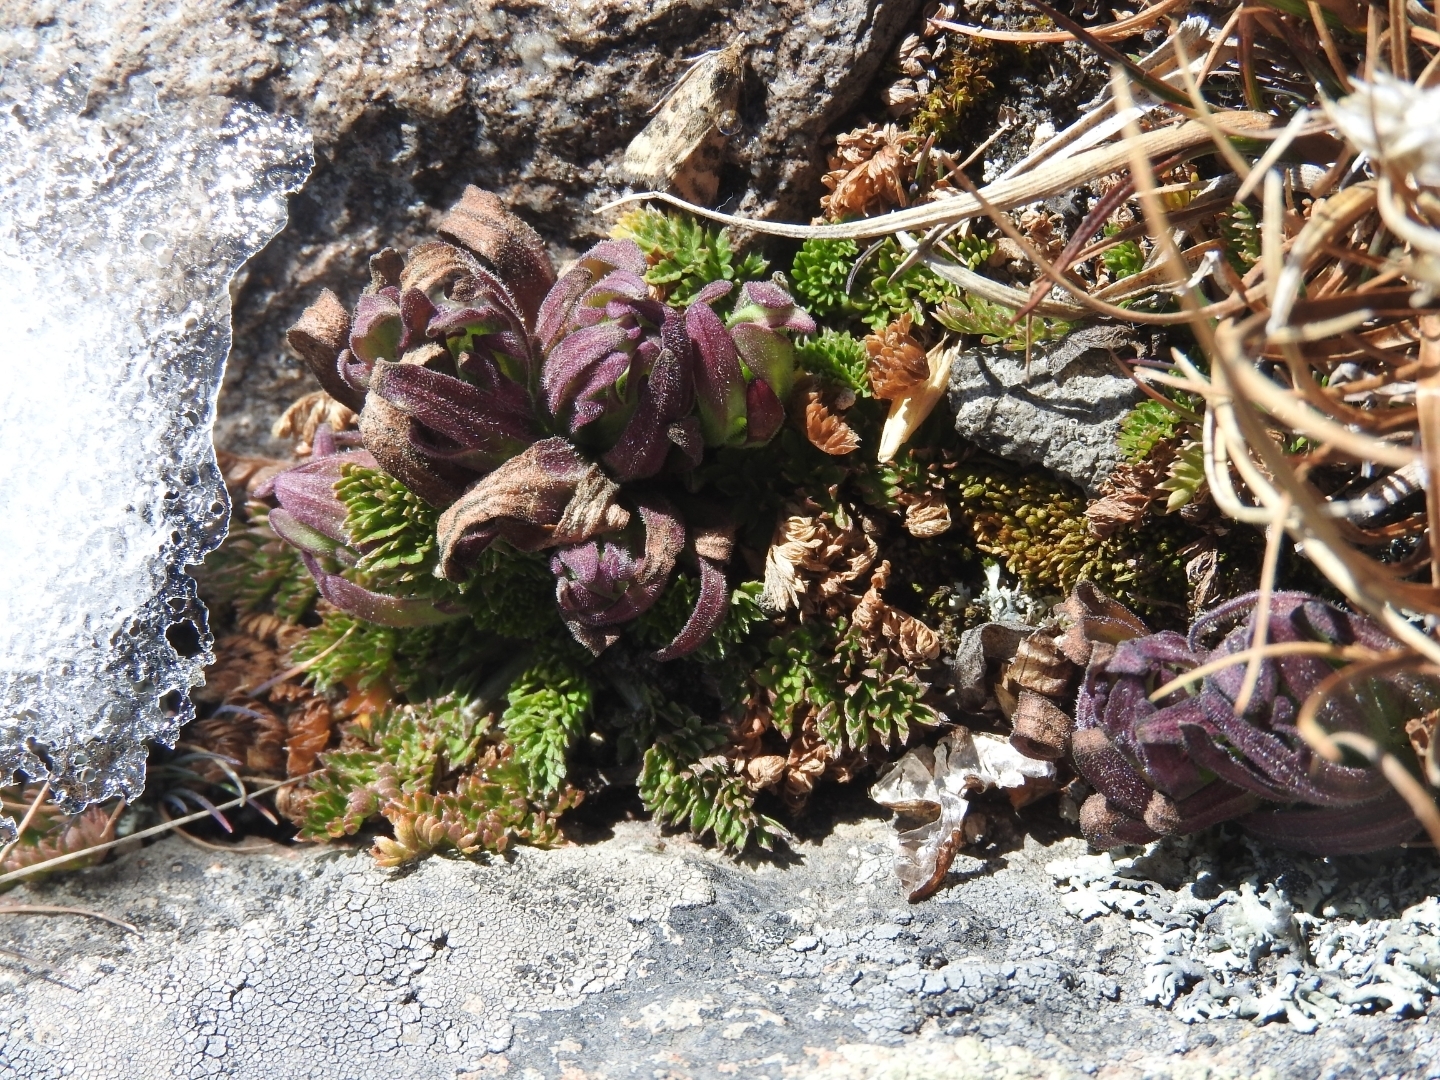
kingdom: Plantae
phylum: Tracheophyta
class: Lycopodiopsida
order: Selaginellales
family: Selaginellaceae
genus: Selaginella
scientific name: Selaginella lepidophylla
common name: Rose-of-jericho
